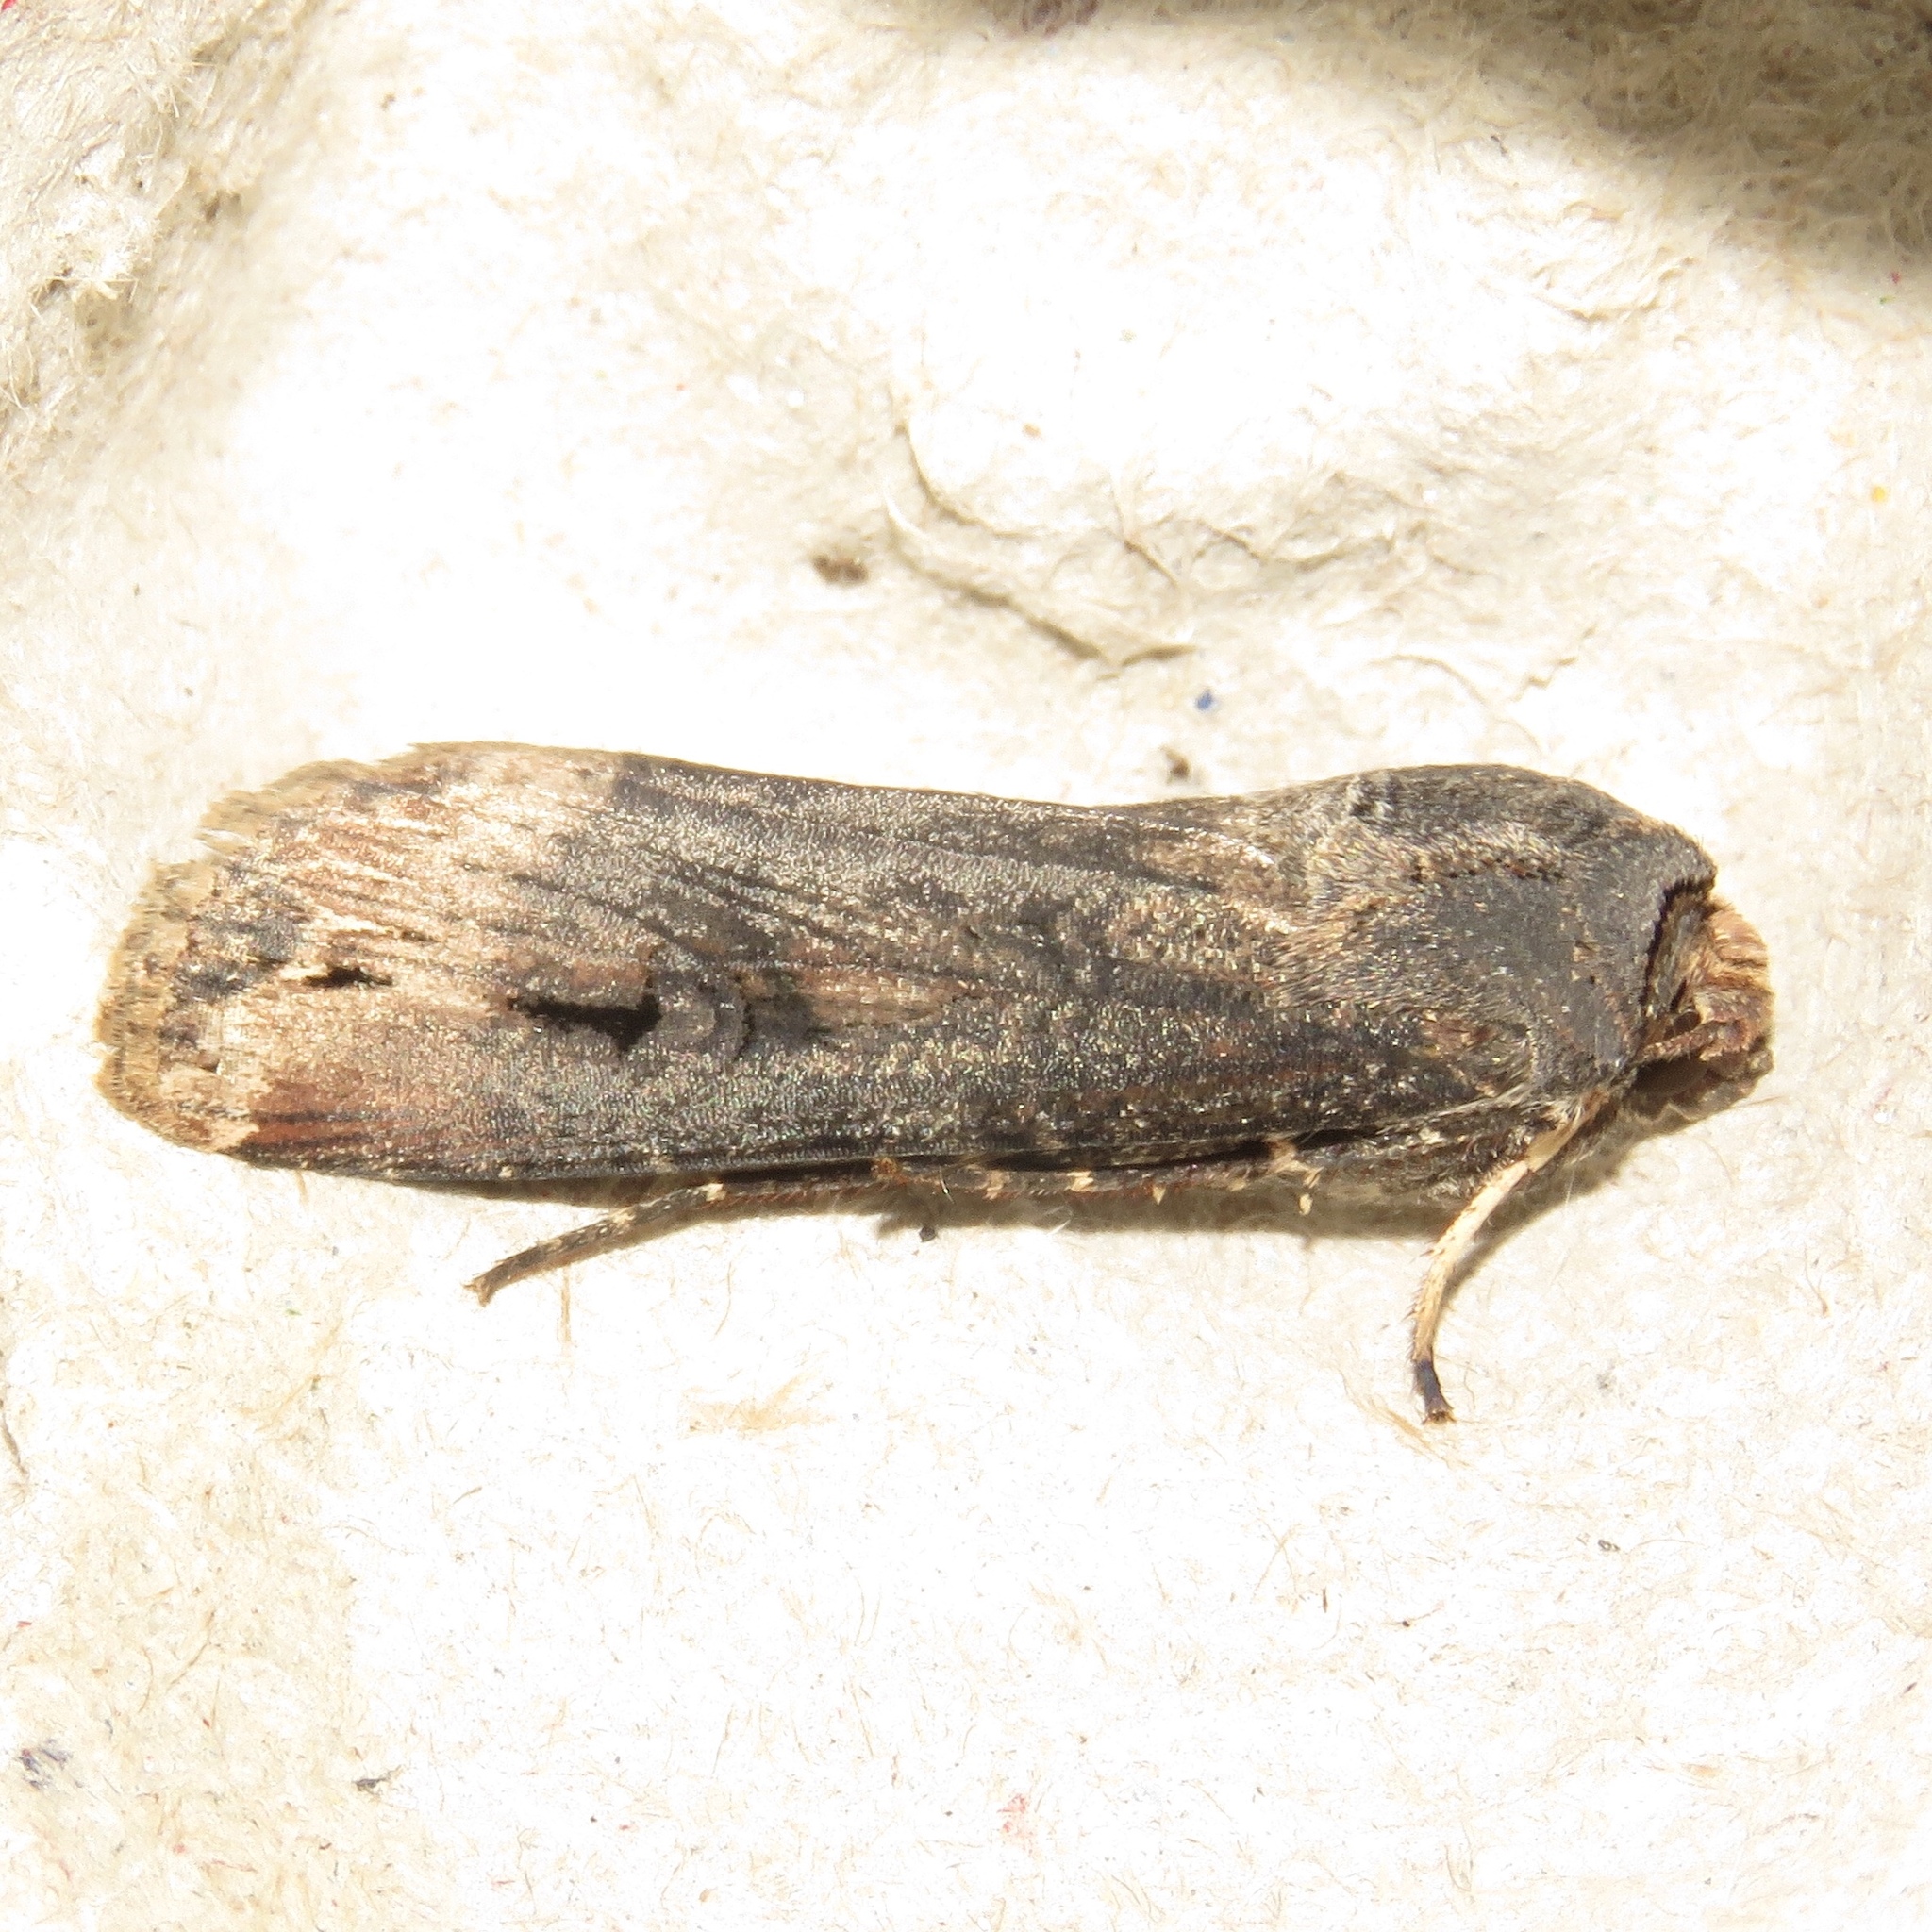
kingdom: Animalia
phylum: Arthropoda
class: Insecta
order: Lepidoptera
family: Noctuidae
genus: Agrotis
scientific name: Agrotis ipsilon
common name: Dark sword-grass
